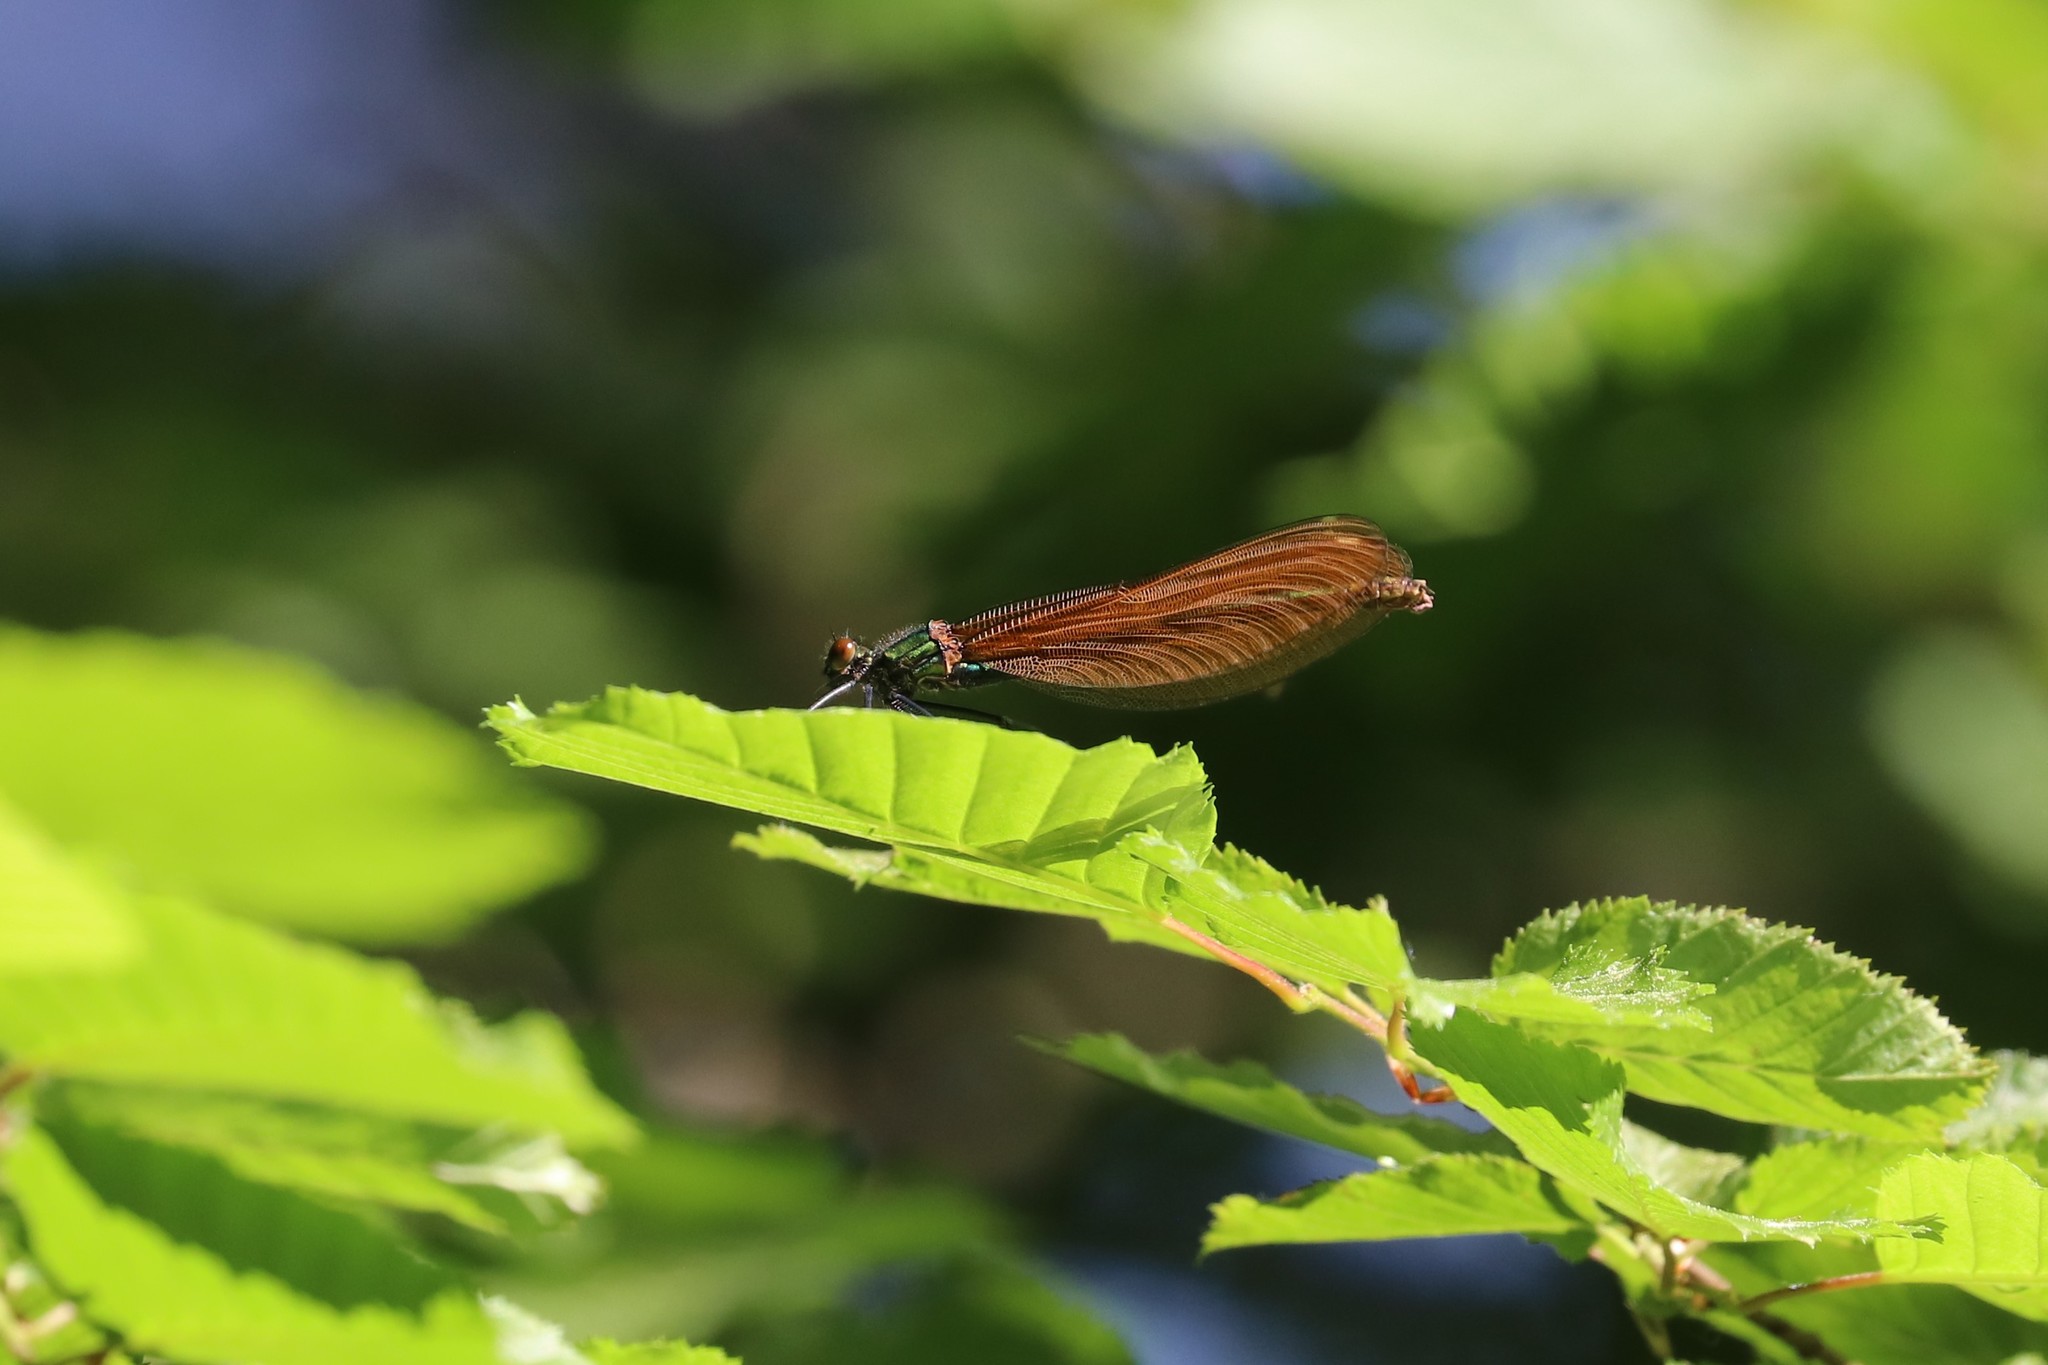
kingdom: Animalia
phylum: Arthropoda
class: Insecta
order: Odonata
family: Calopterygidae
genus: Calopteryx
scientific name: Calopteryx virgo
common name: Beautiful demoiselle
